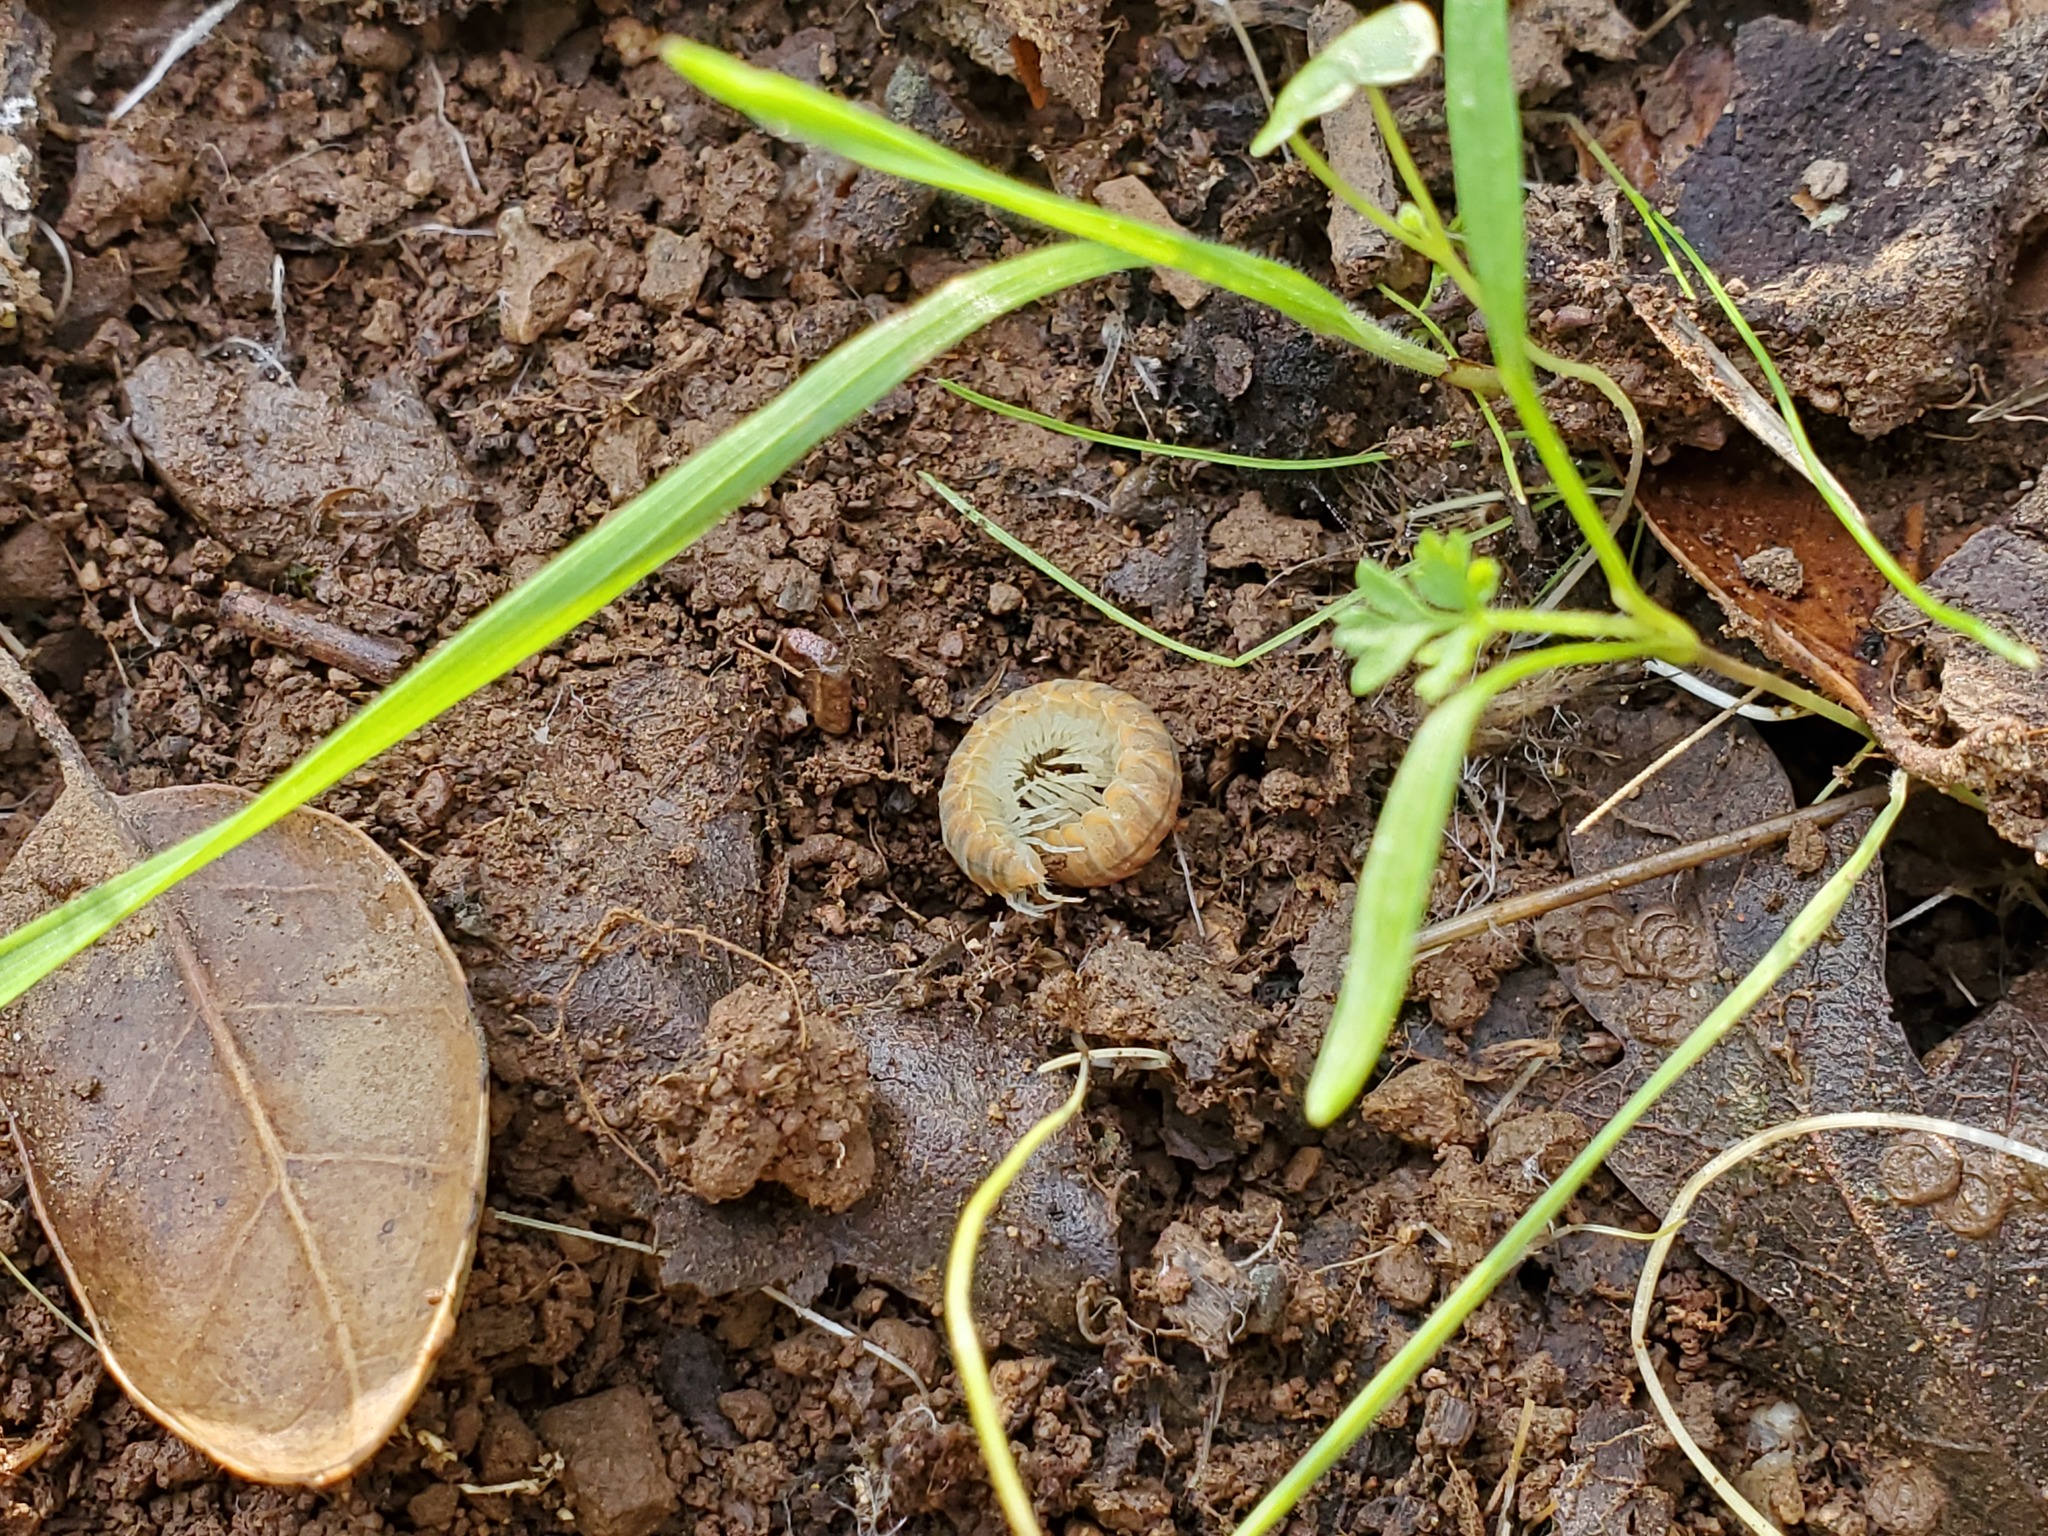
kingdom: Animalia
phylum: Arthropoda
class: Diplopoda
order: Polydesmida
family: Xystodesmidae
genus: Xystocheir
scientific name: Xystocheir dissecta
